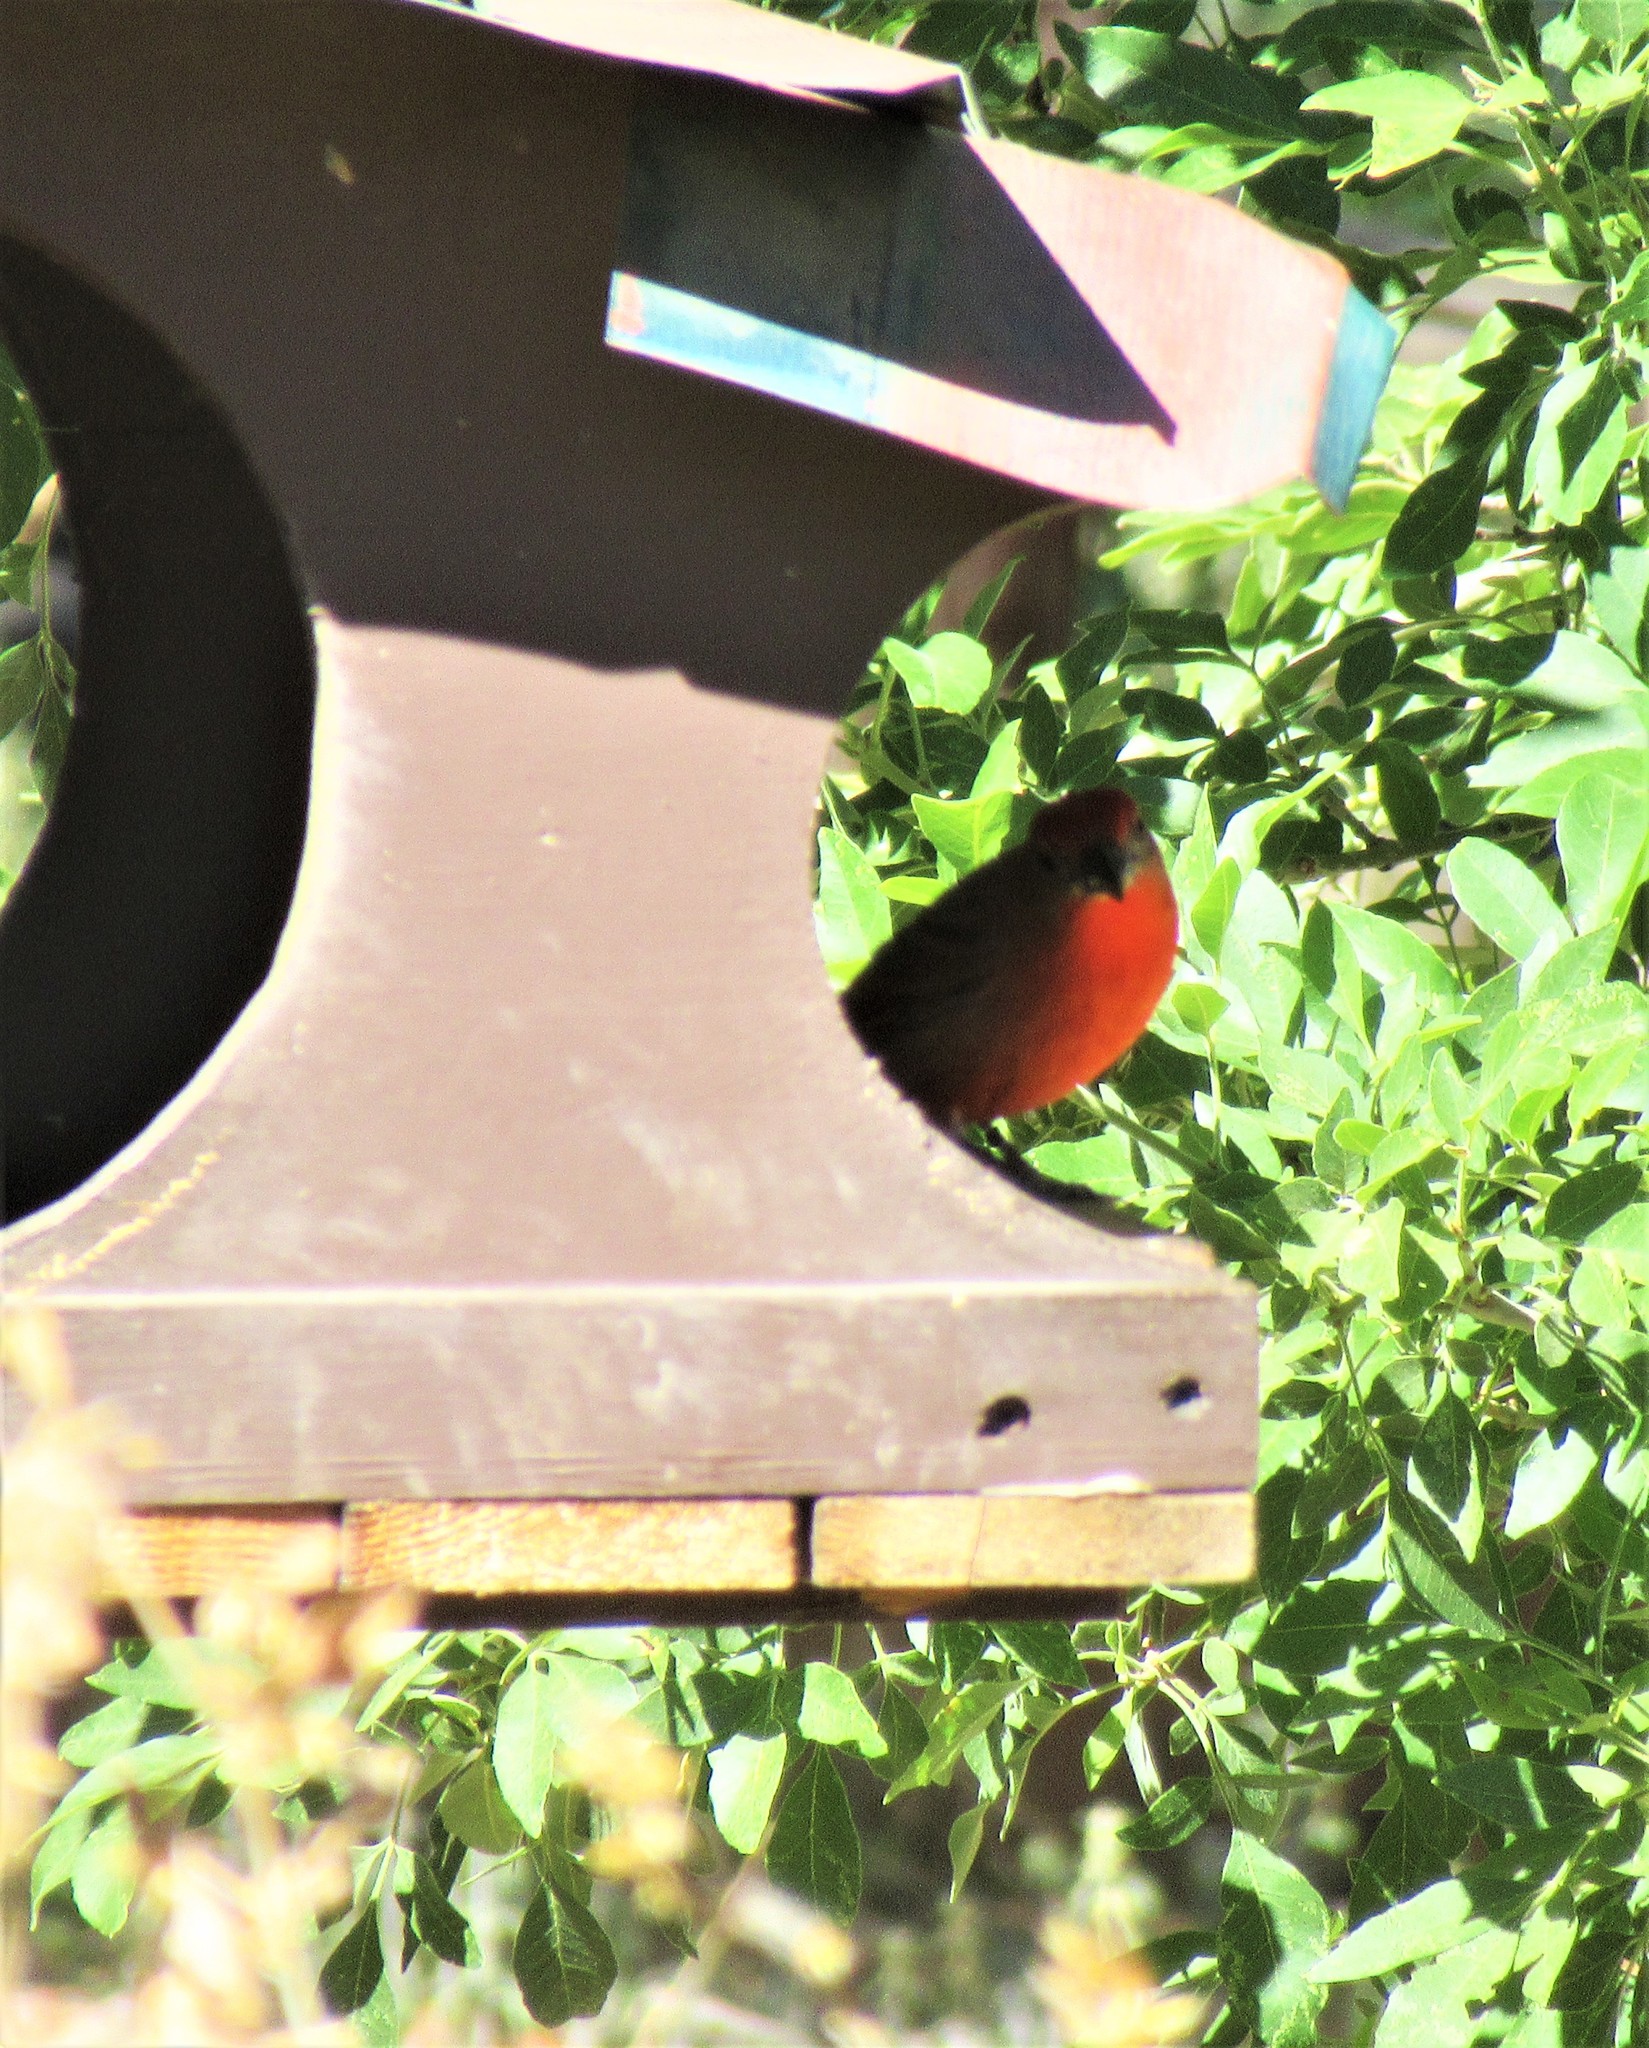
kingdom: Animalia
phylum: Chordata
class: Aves
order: Passeriformes
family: Cardinalidae
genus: Piranga
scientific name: Piranga flava
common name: Red tanager
